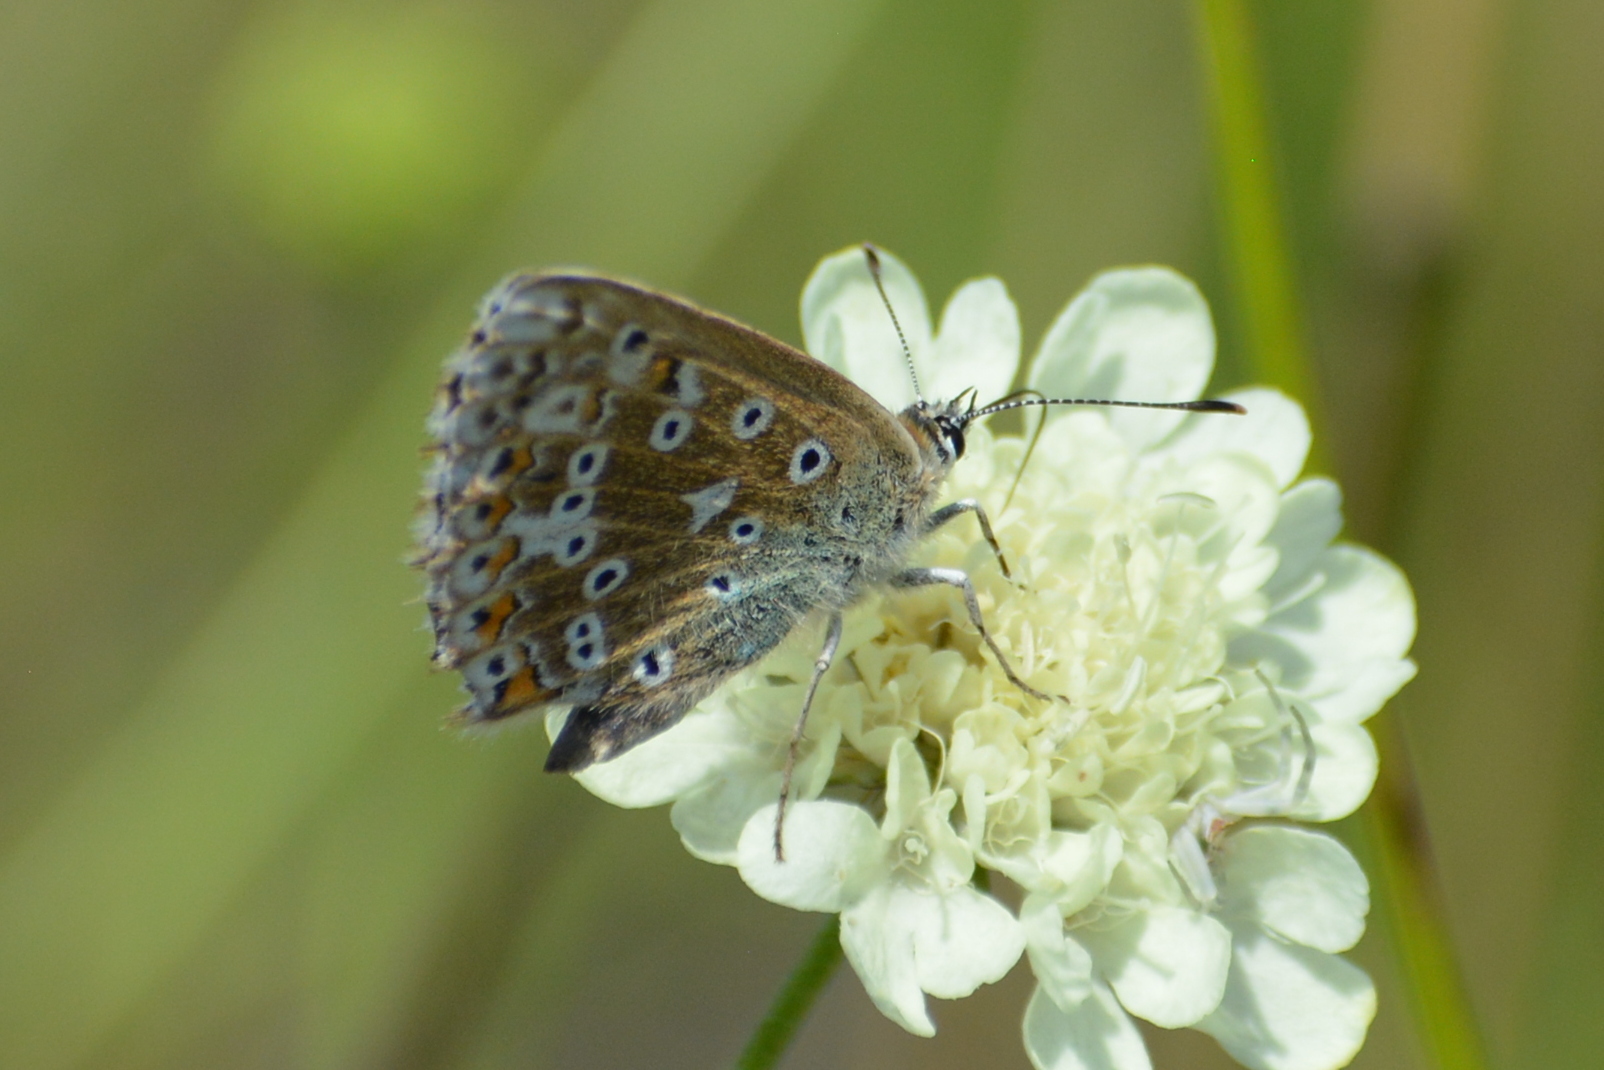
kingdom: Animalia
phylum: Arthropoda
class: Insecta
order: Lepidoptera
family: Lycaenidae
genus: Lysandra
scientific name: Lysandra coridon
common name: Chalkhill blue
